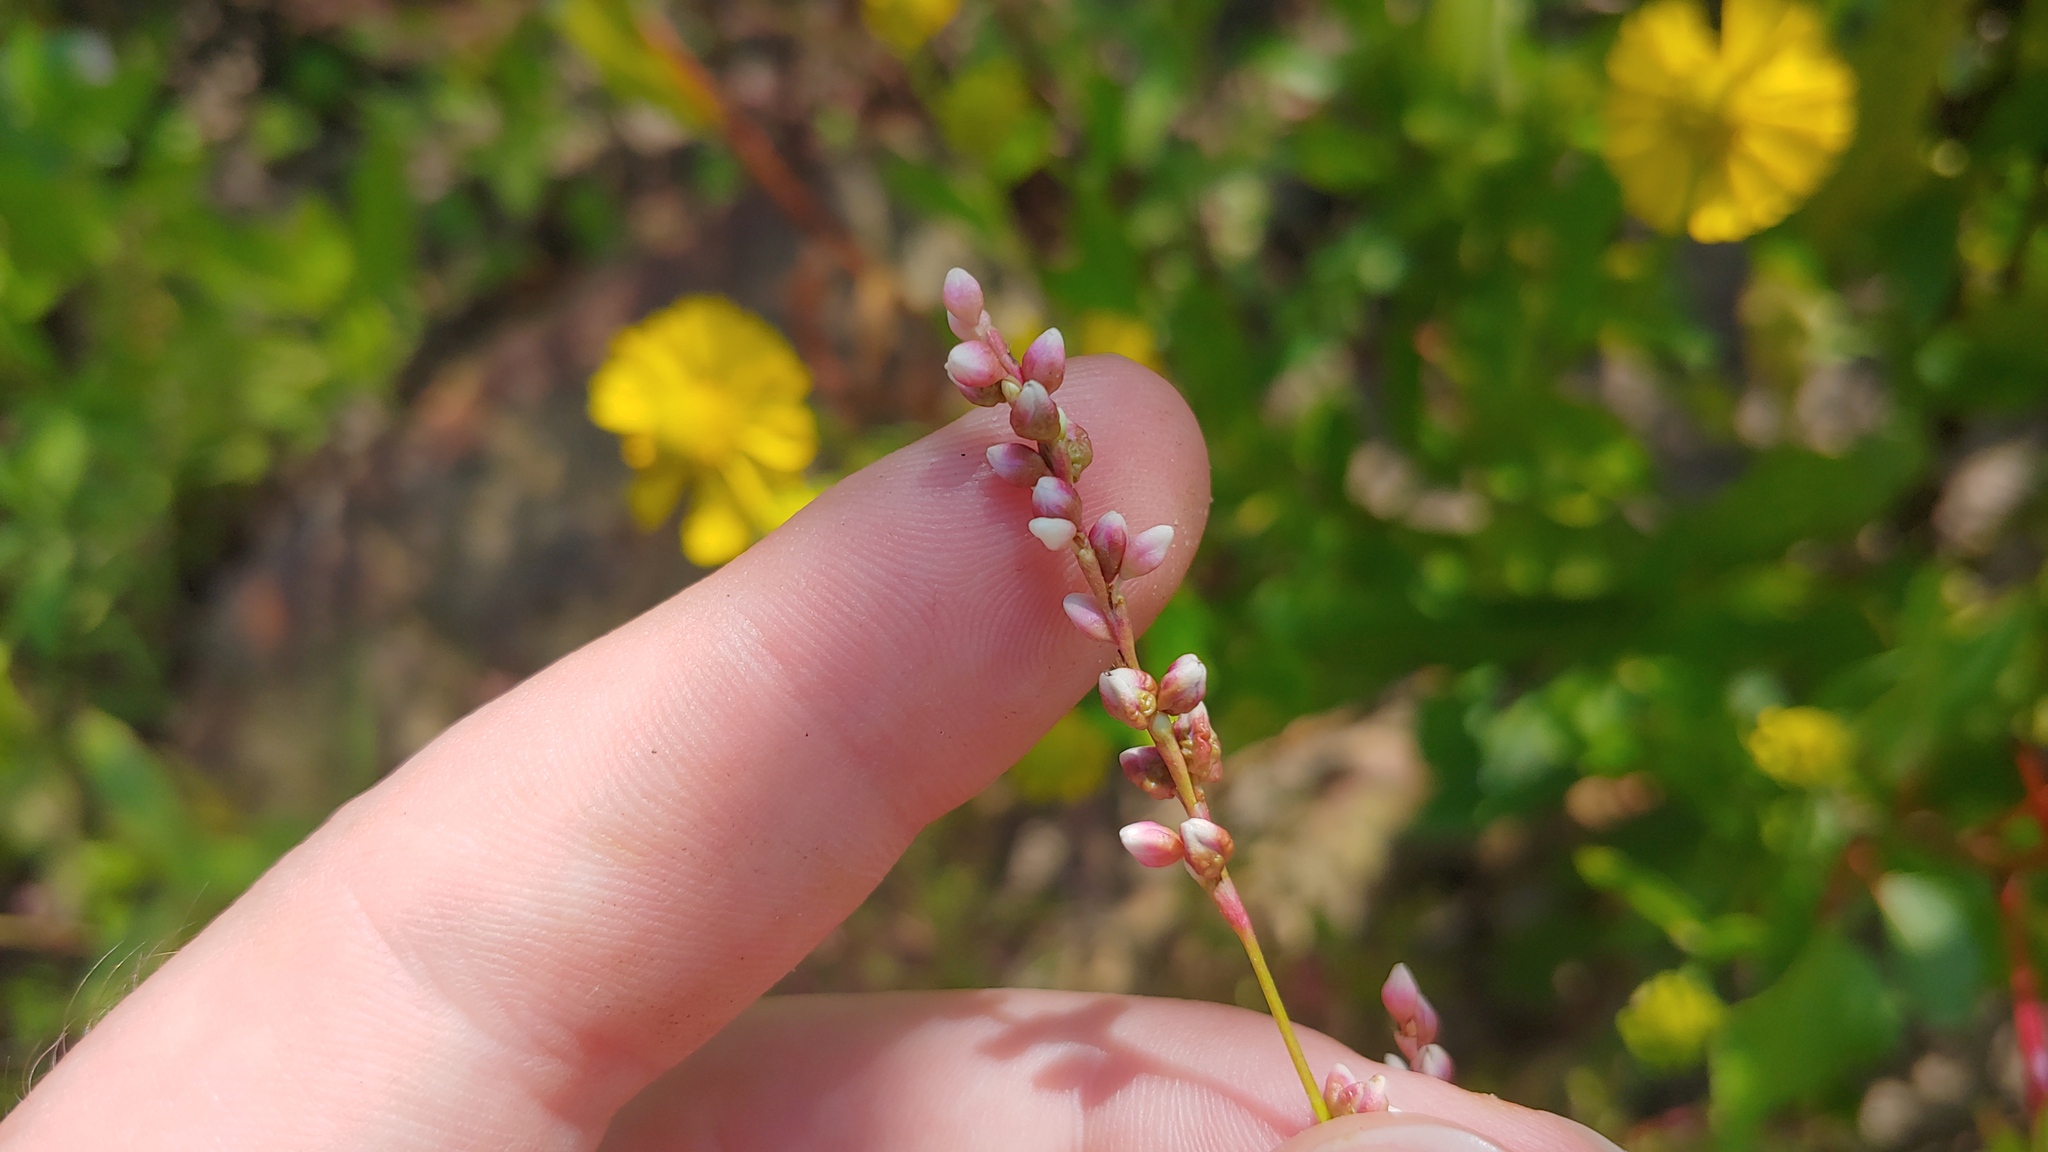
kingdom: Plantae
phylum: Tracheophyta
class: Magnoliopsida
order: Caryophyllales
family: Polygonaceae
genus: Persicaria
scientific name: Persicaria hydropiper
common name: Water-pepper
